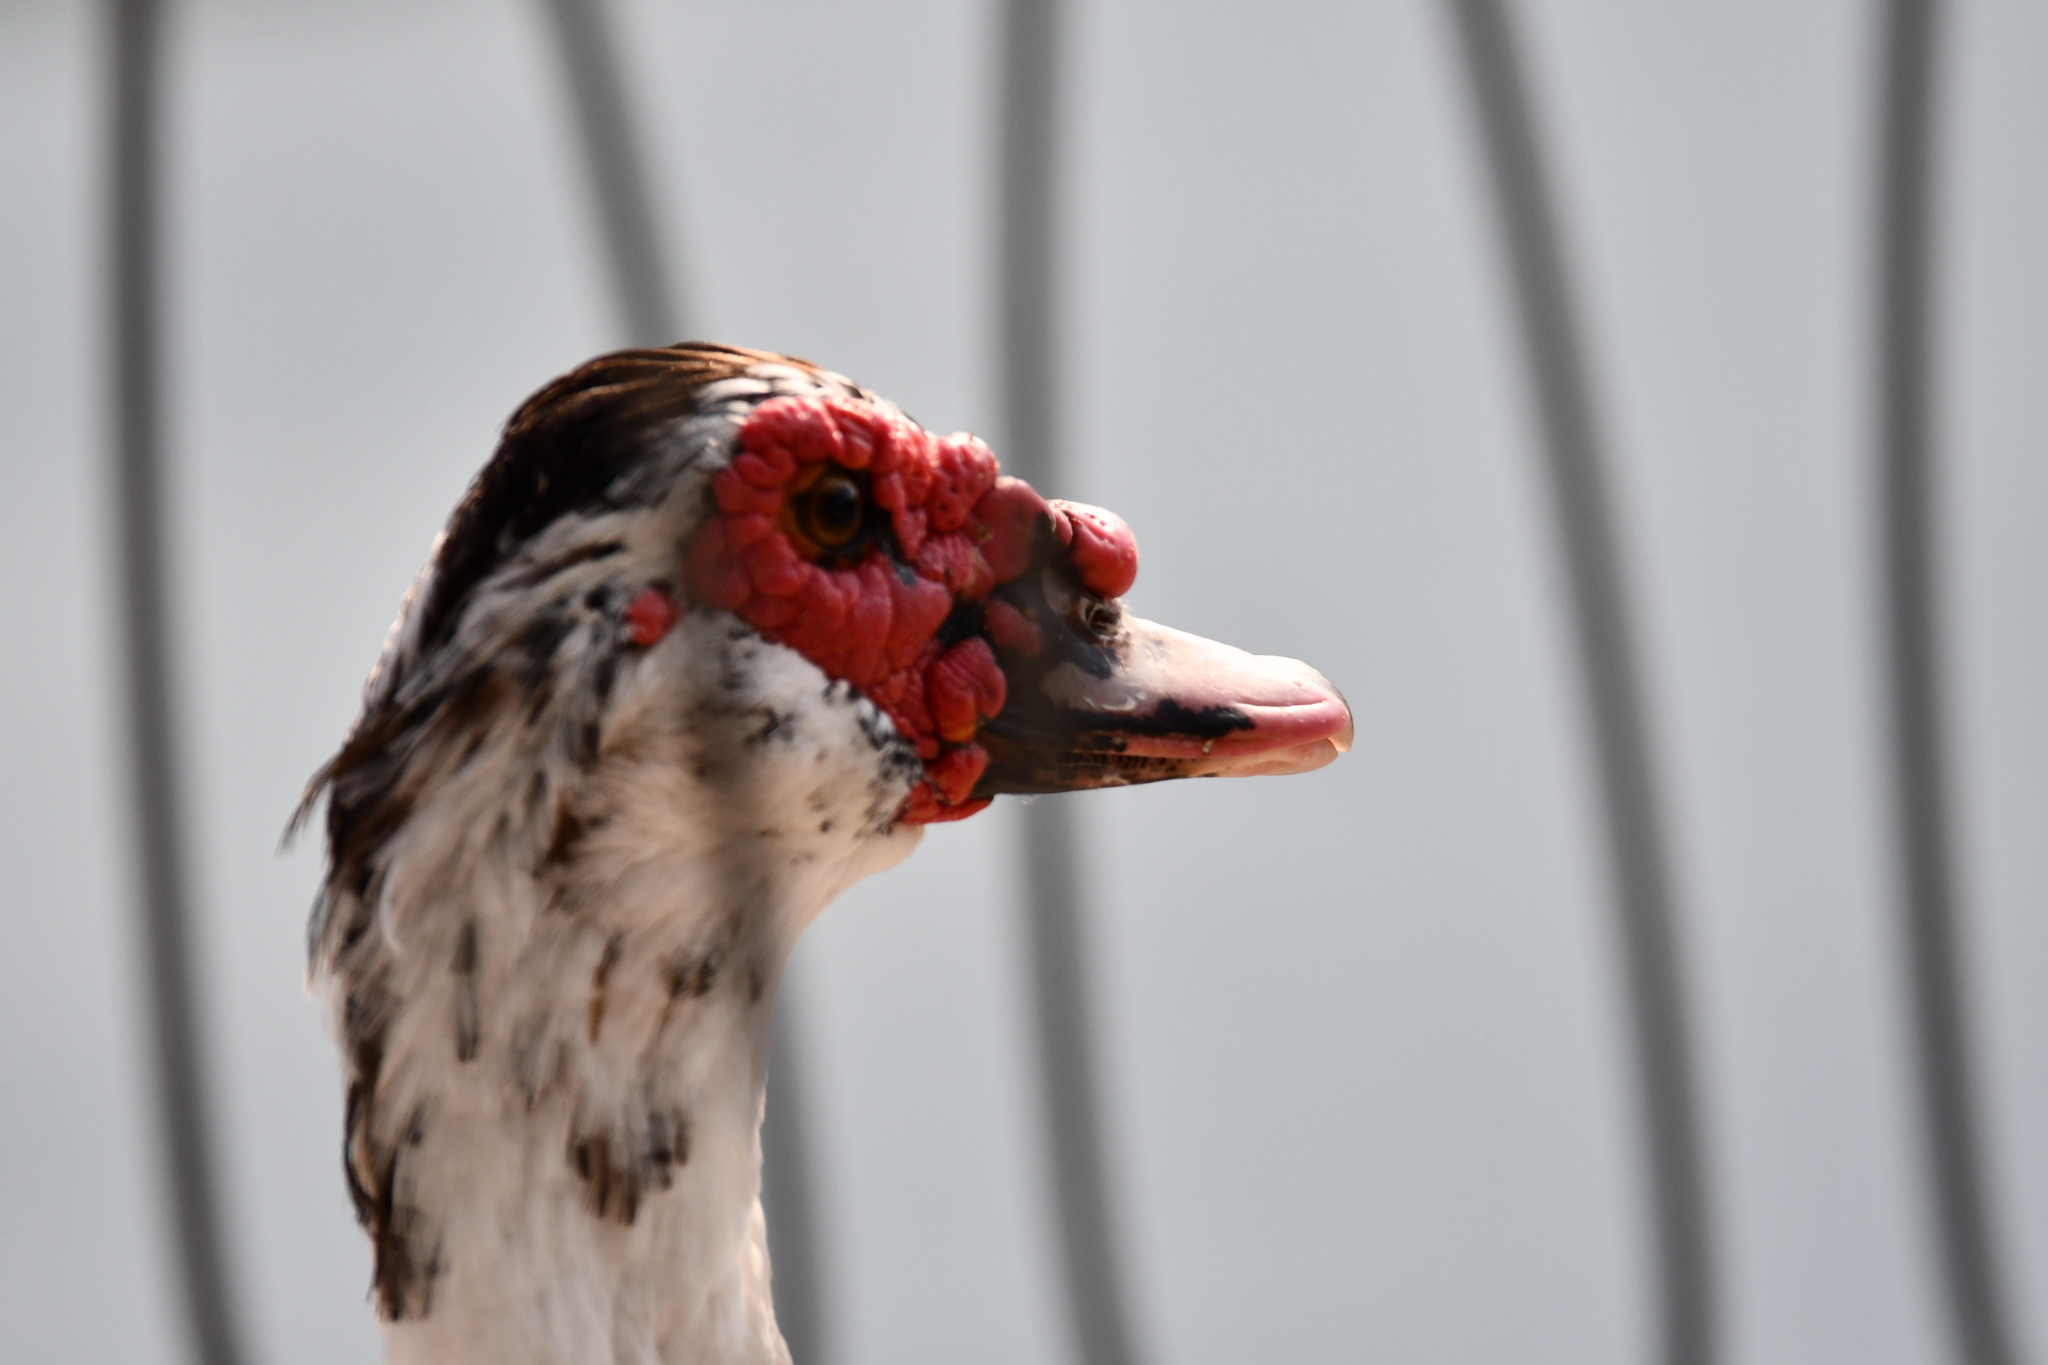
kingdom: Animalia
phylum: Chordata
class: Aves
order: Anseriformes
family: Anatidae
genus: Cairina
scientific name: Cairina moschata
